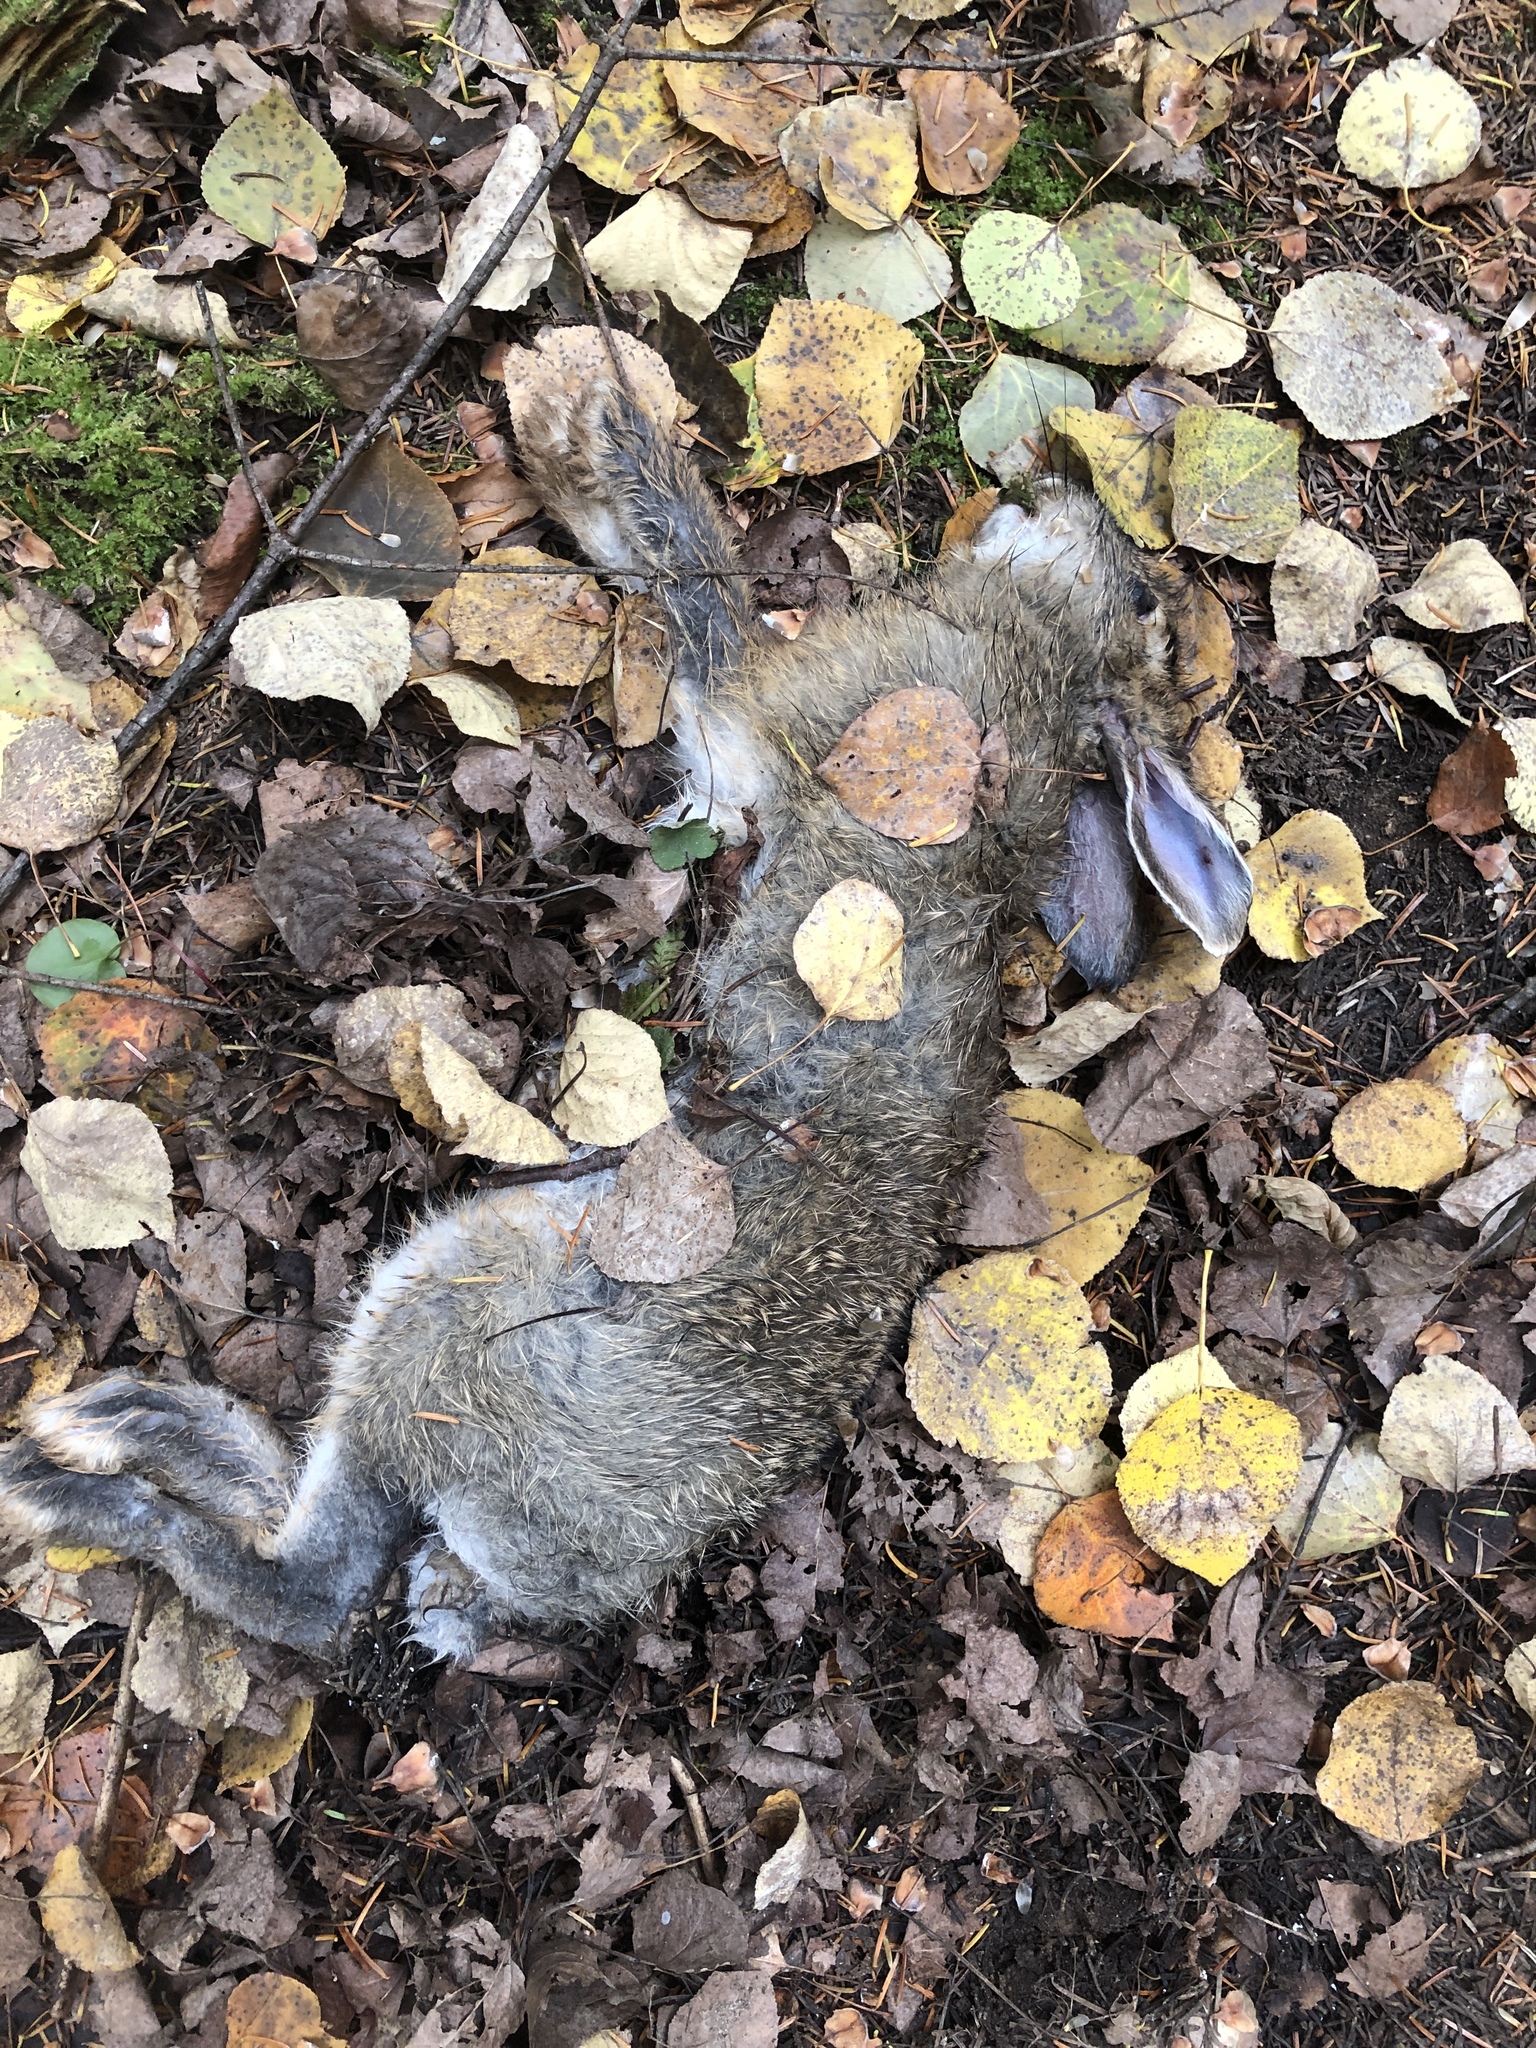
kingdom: Animalia
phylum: Chordata
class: Mammalia
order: Lagomorpha
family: Leporidae
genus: Lepus
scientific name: Lepus americanus
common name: Snowshoe hare
